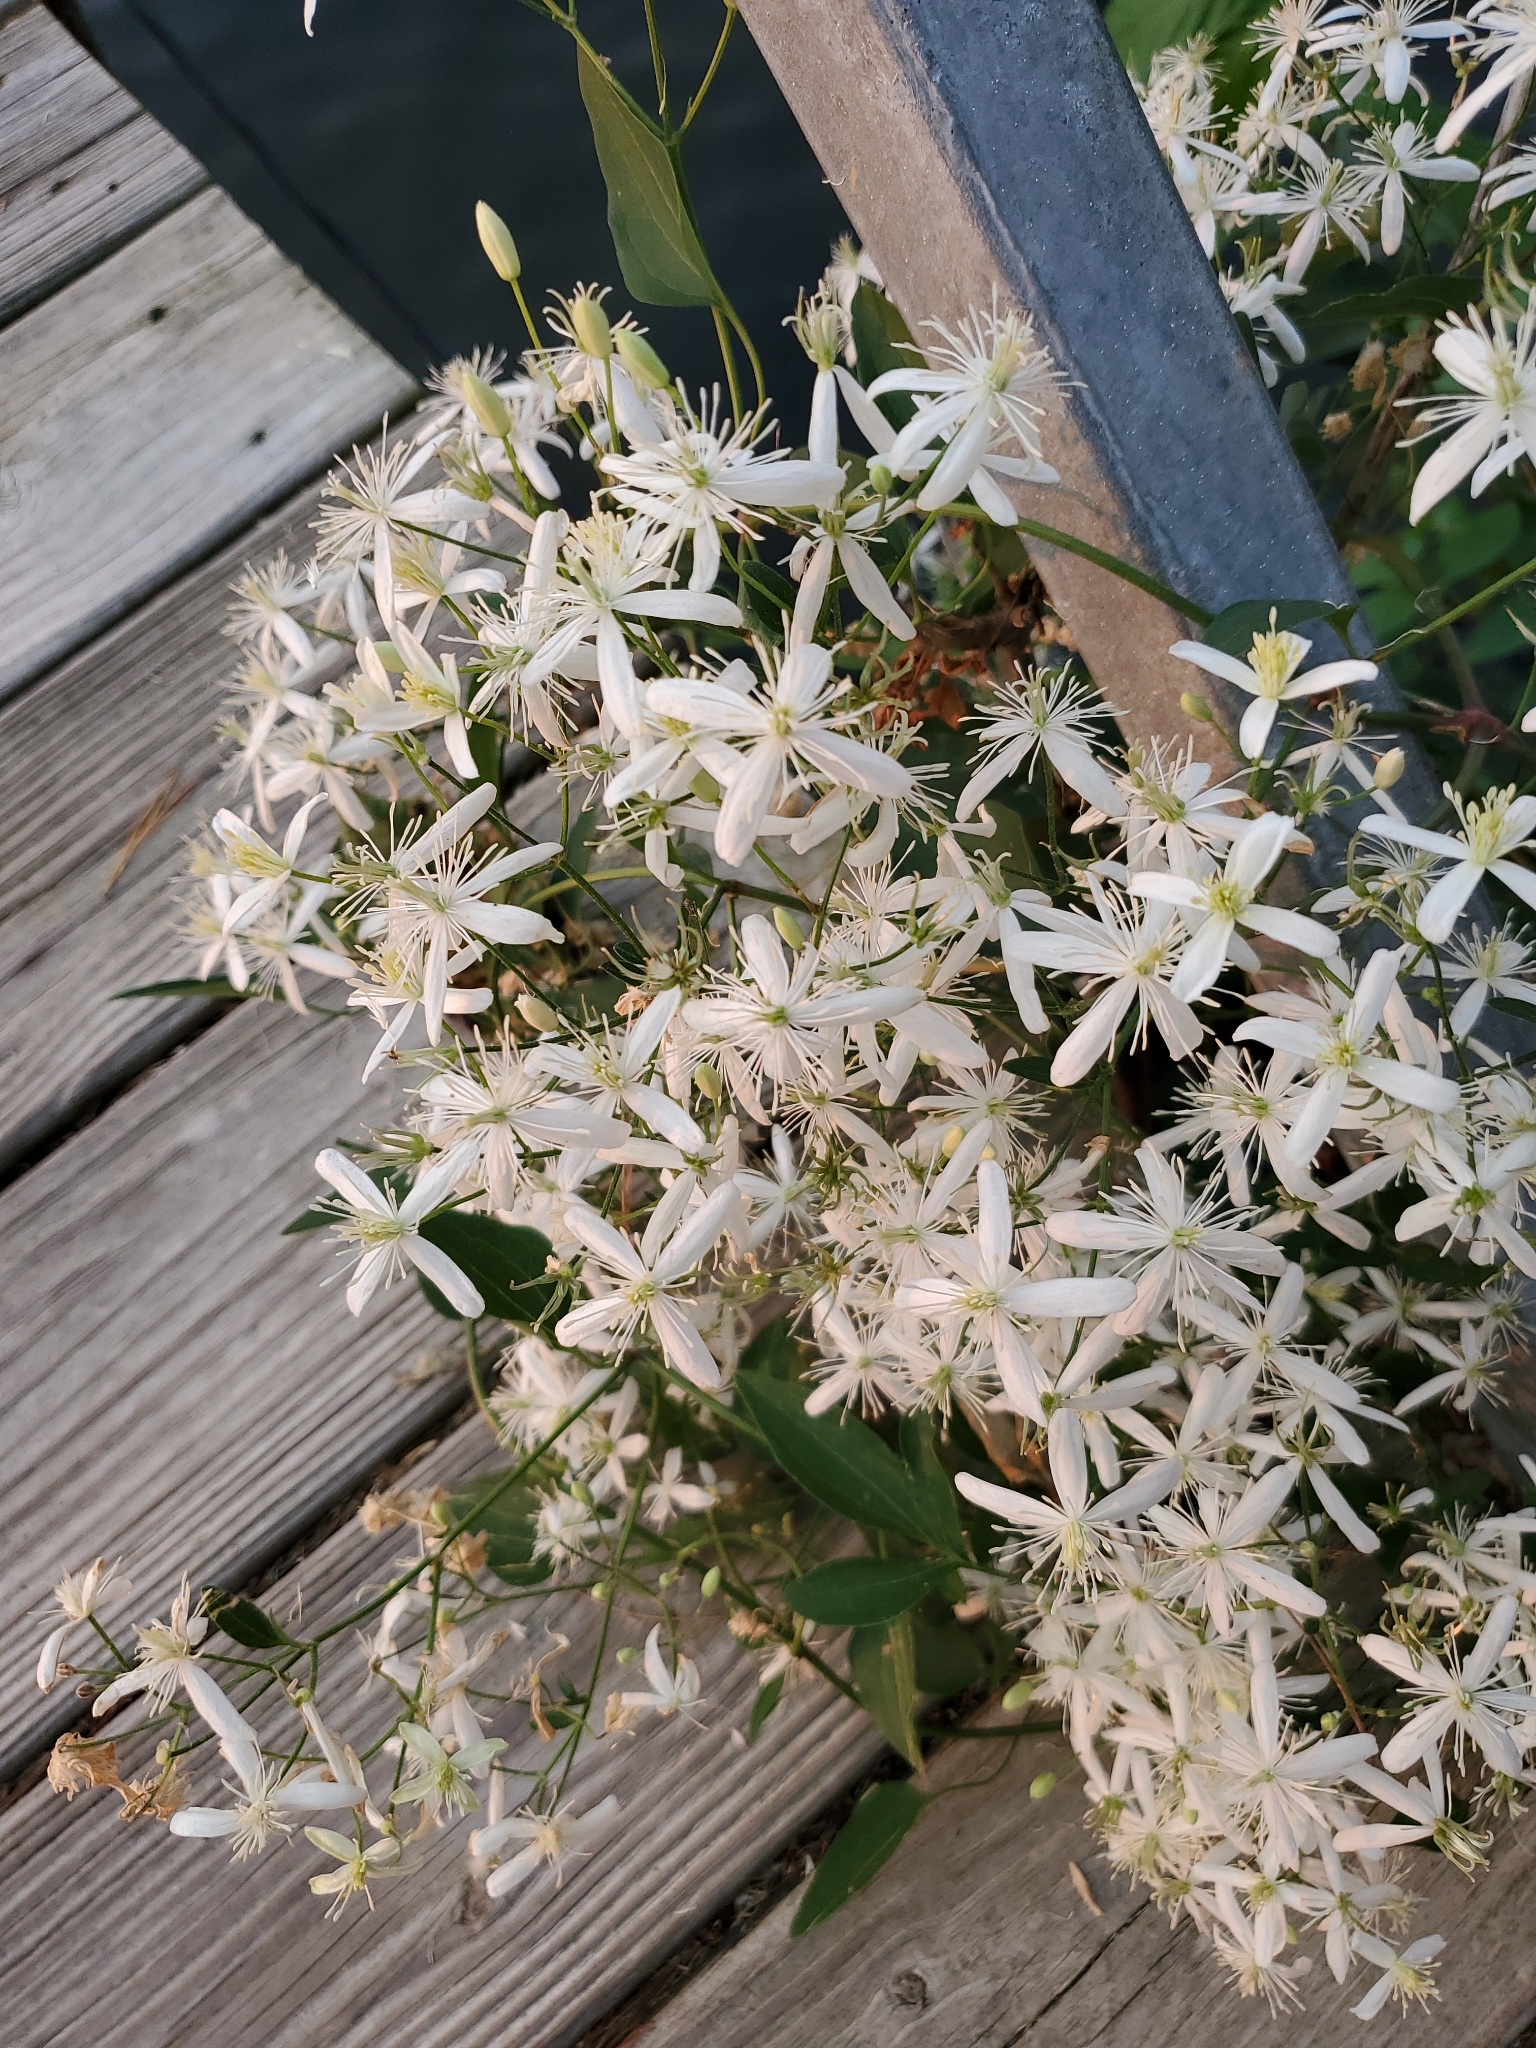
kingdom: Plantae
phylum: Tracheophyta
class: Magnoliopsida
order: Ranunculales
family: Ranunculaceae
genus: Clematis
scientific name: Clematis terniflora
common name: Sweet autumn clematis
